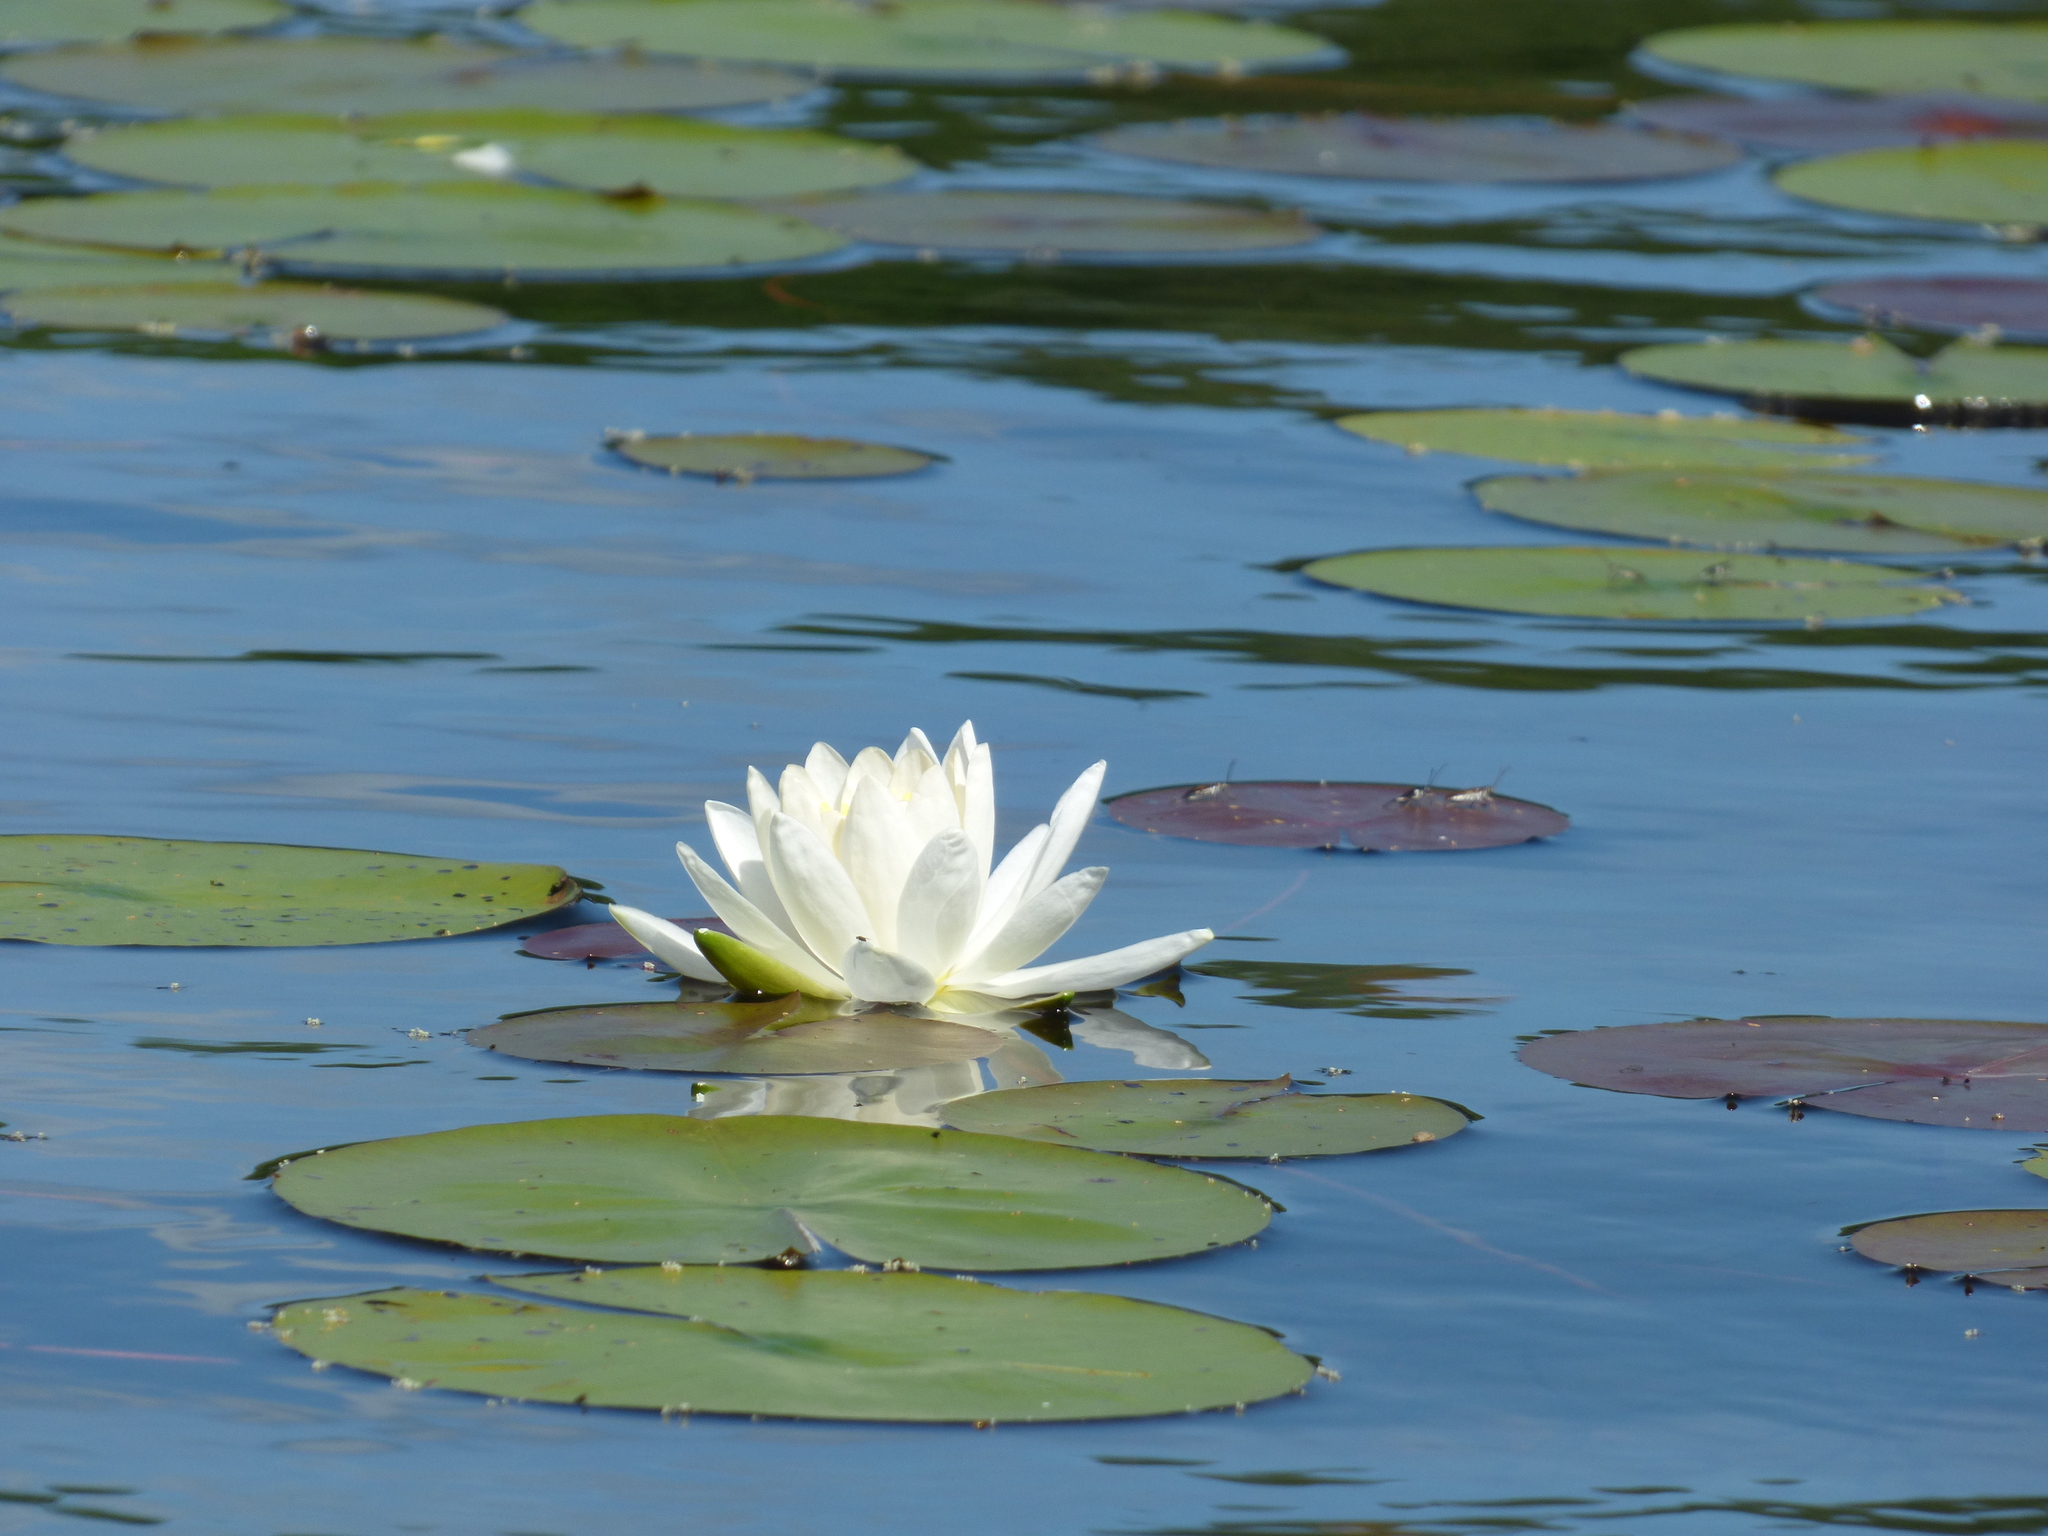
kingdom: Plantae
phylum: Tracheophyta
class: Magnoliopsida
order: Nymphaeales
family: Nymphaeaceae
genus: Nymphaea
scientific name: Nymphaea odorata
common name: Fragrant water-lily
